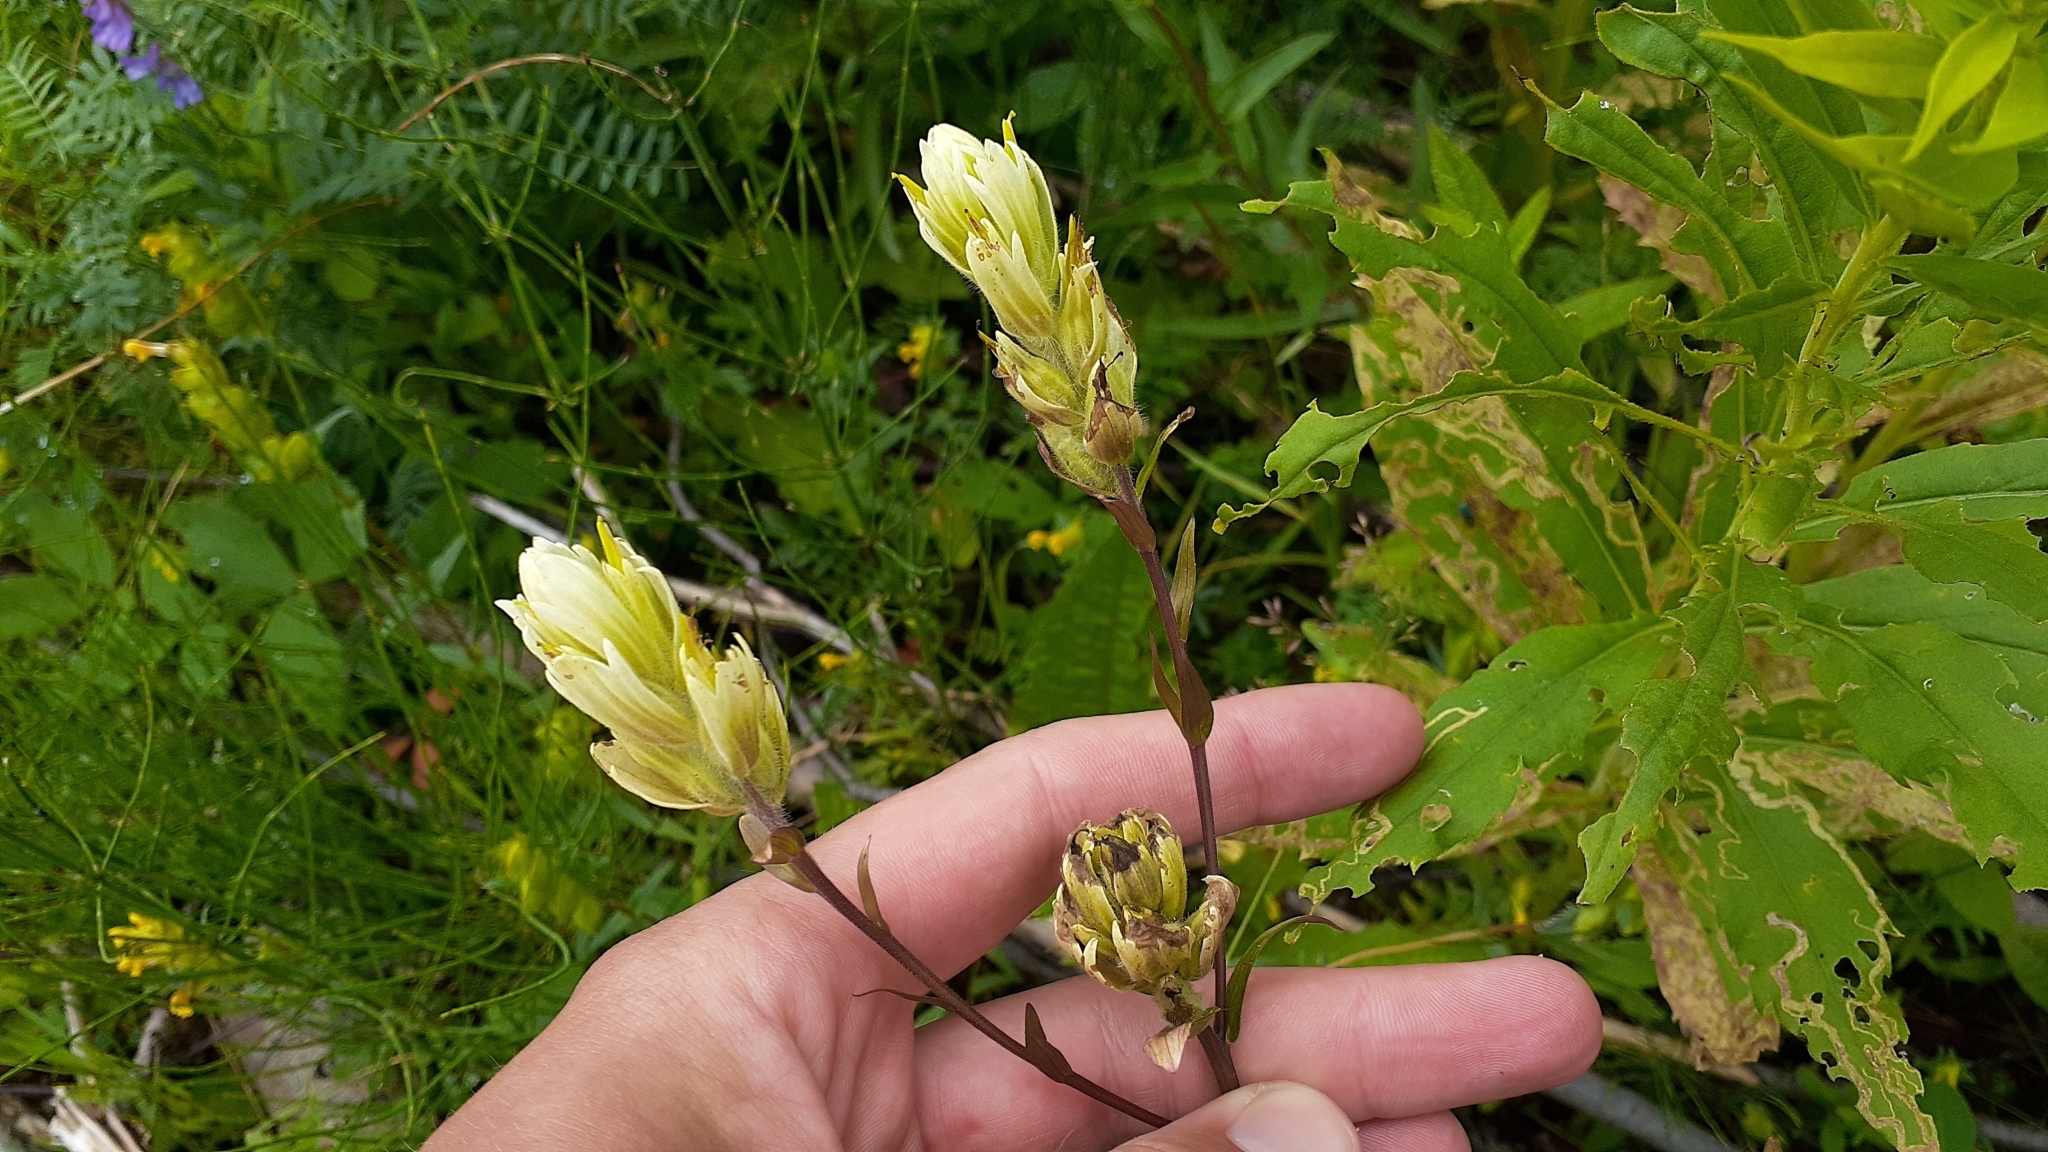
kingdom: Plantae
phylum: Tracheophyta
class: Magnoliopsida
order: Lamiales
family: Orobanchaceae
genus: Castilleja
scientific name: Castilleja septentrionalis
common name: Northeastern paintbrush
